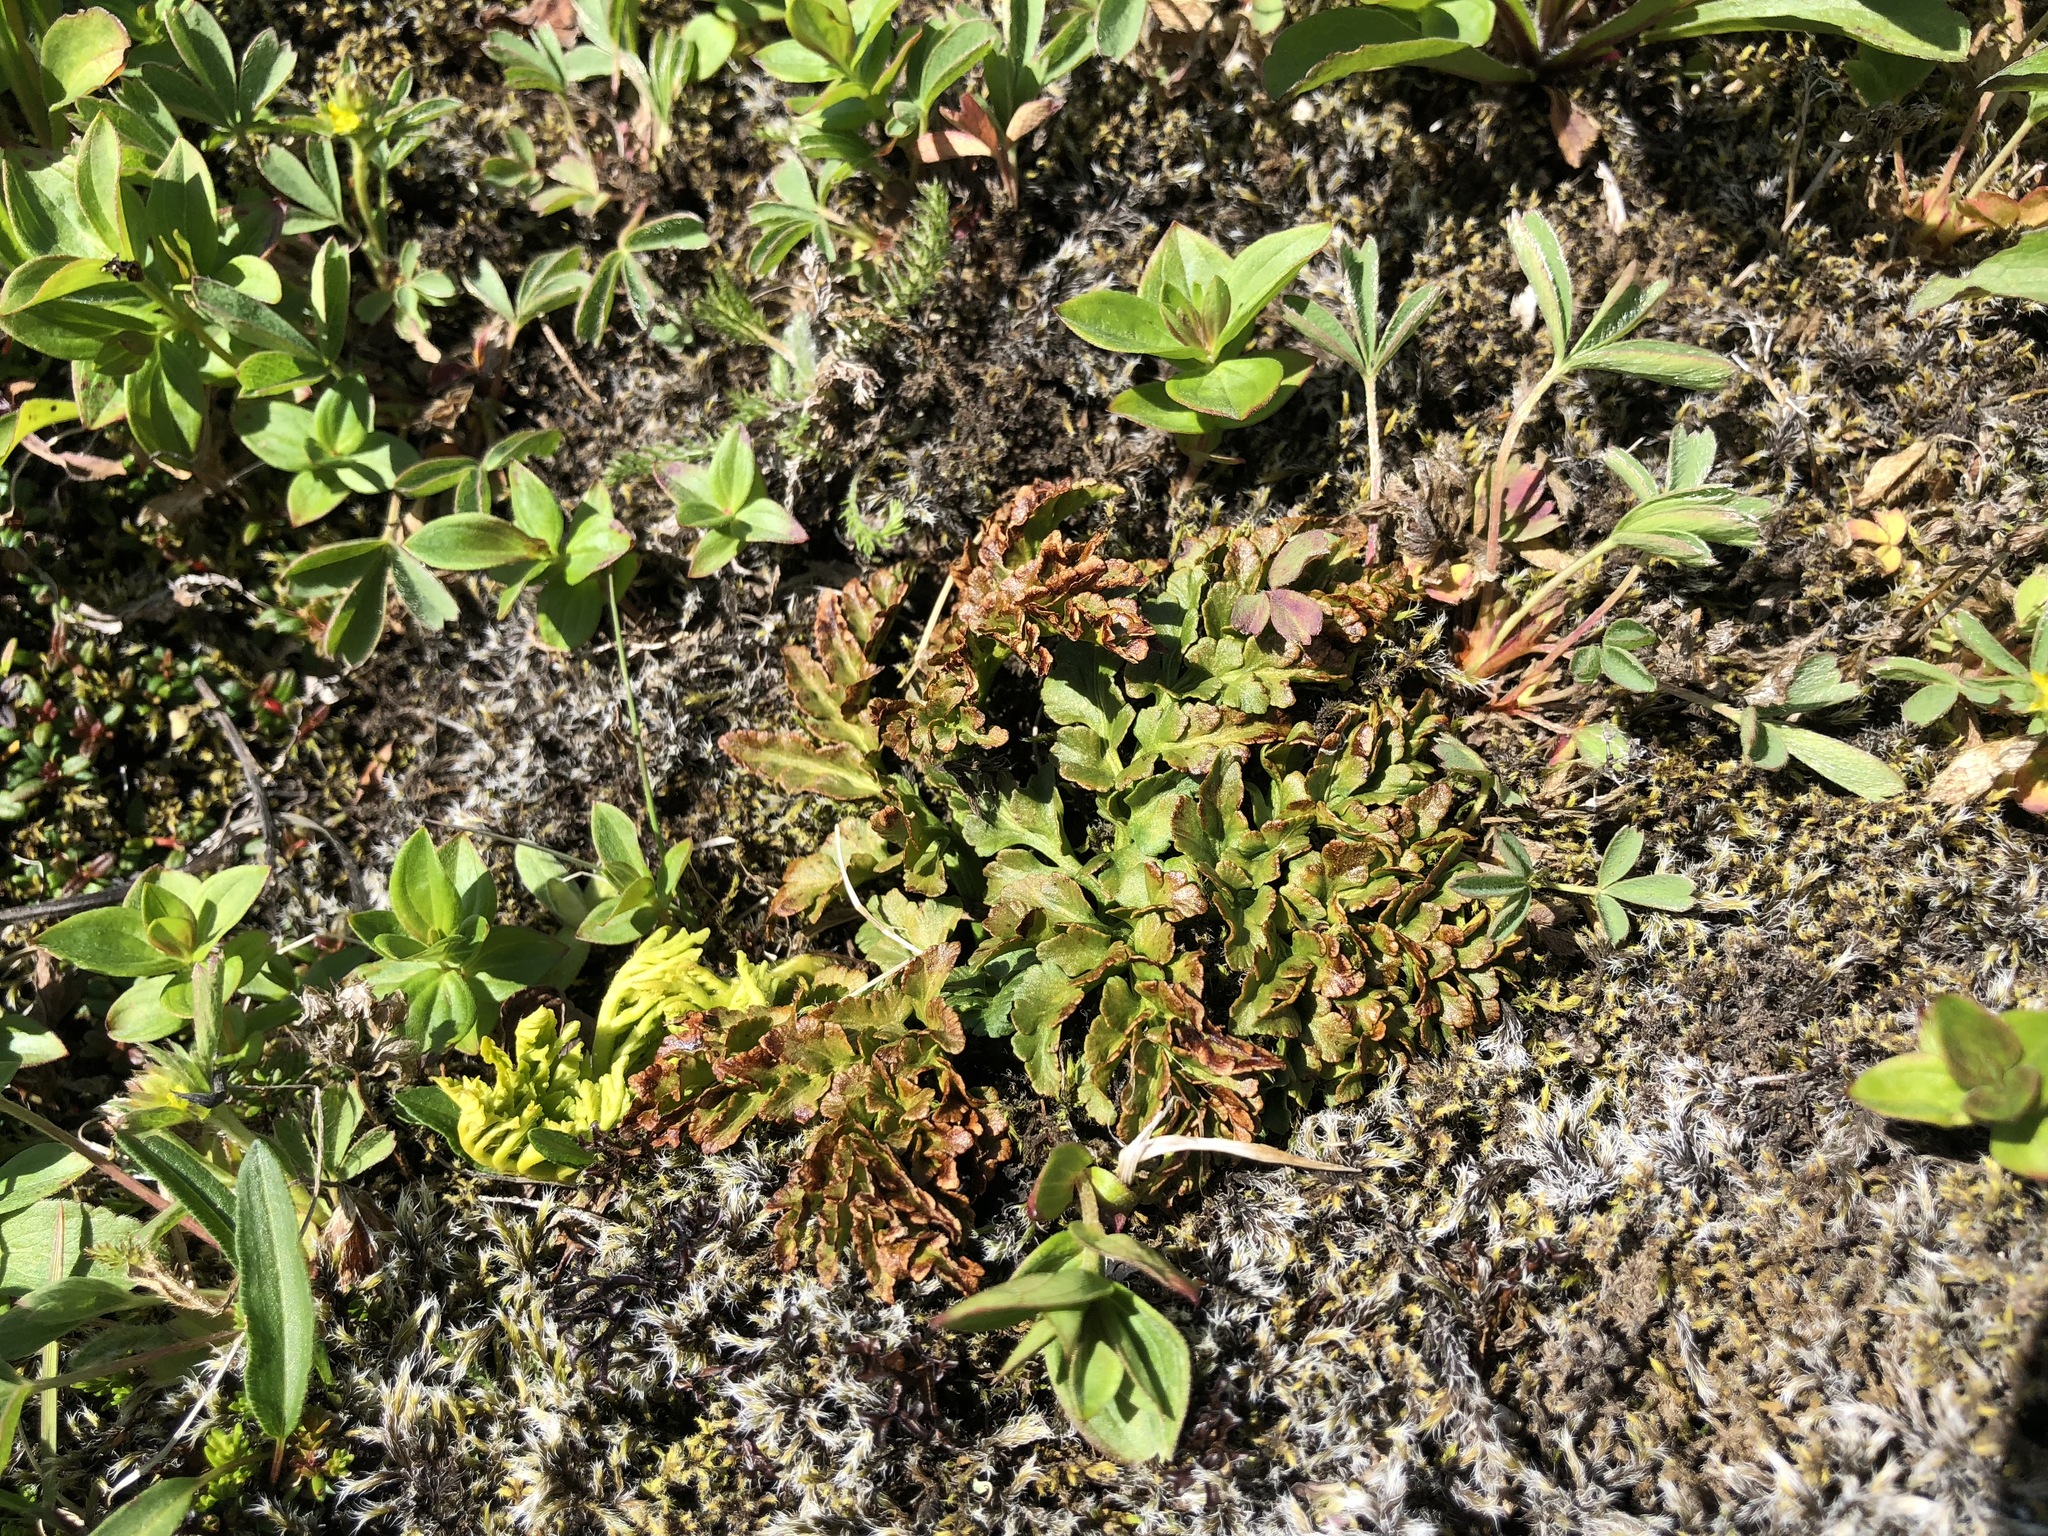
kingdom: Plantae
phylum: Tracheophyta
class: Polypodiopsida
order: Ophioglossales
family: Ophioglossaceae
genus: Sceptridium
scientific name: Sceptridium multifidum
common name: Leathery grape fern
